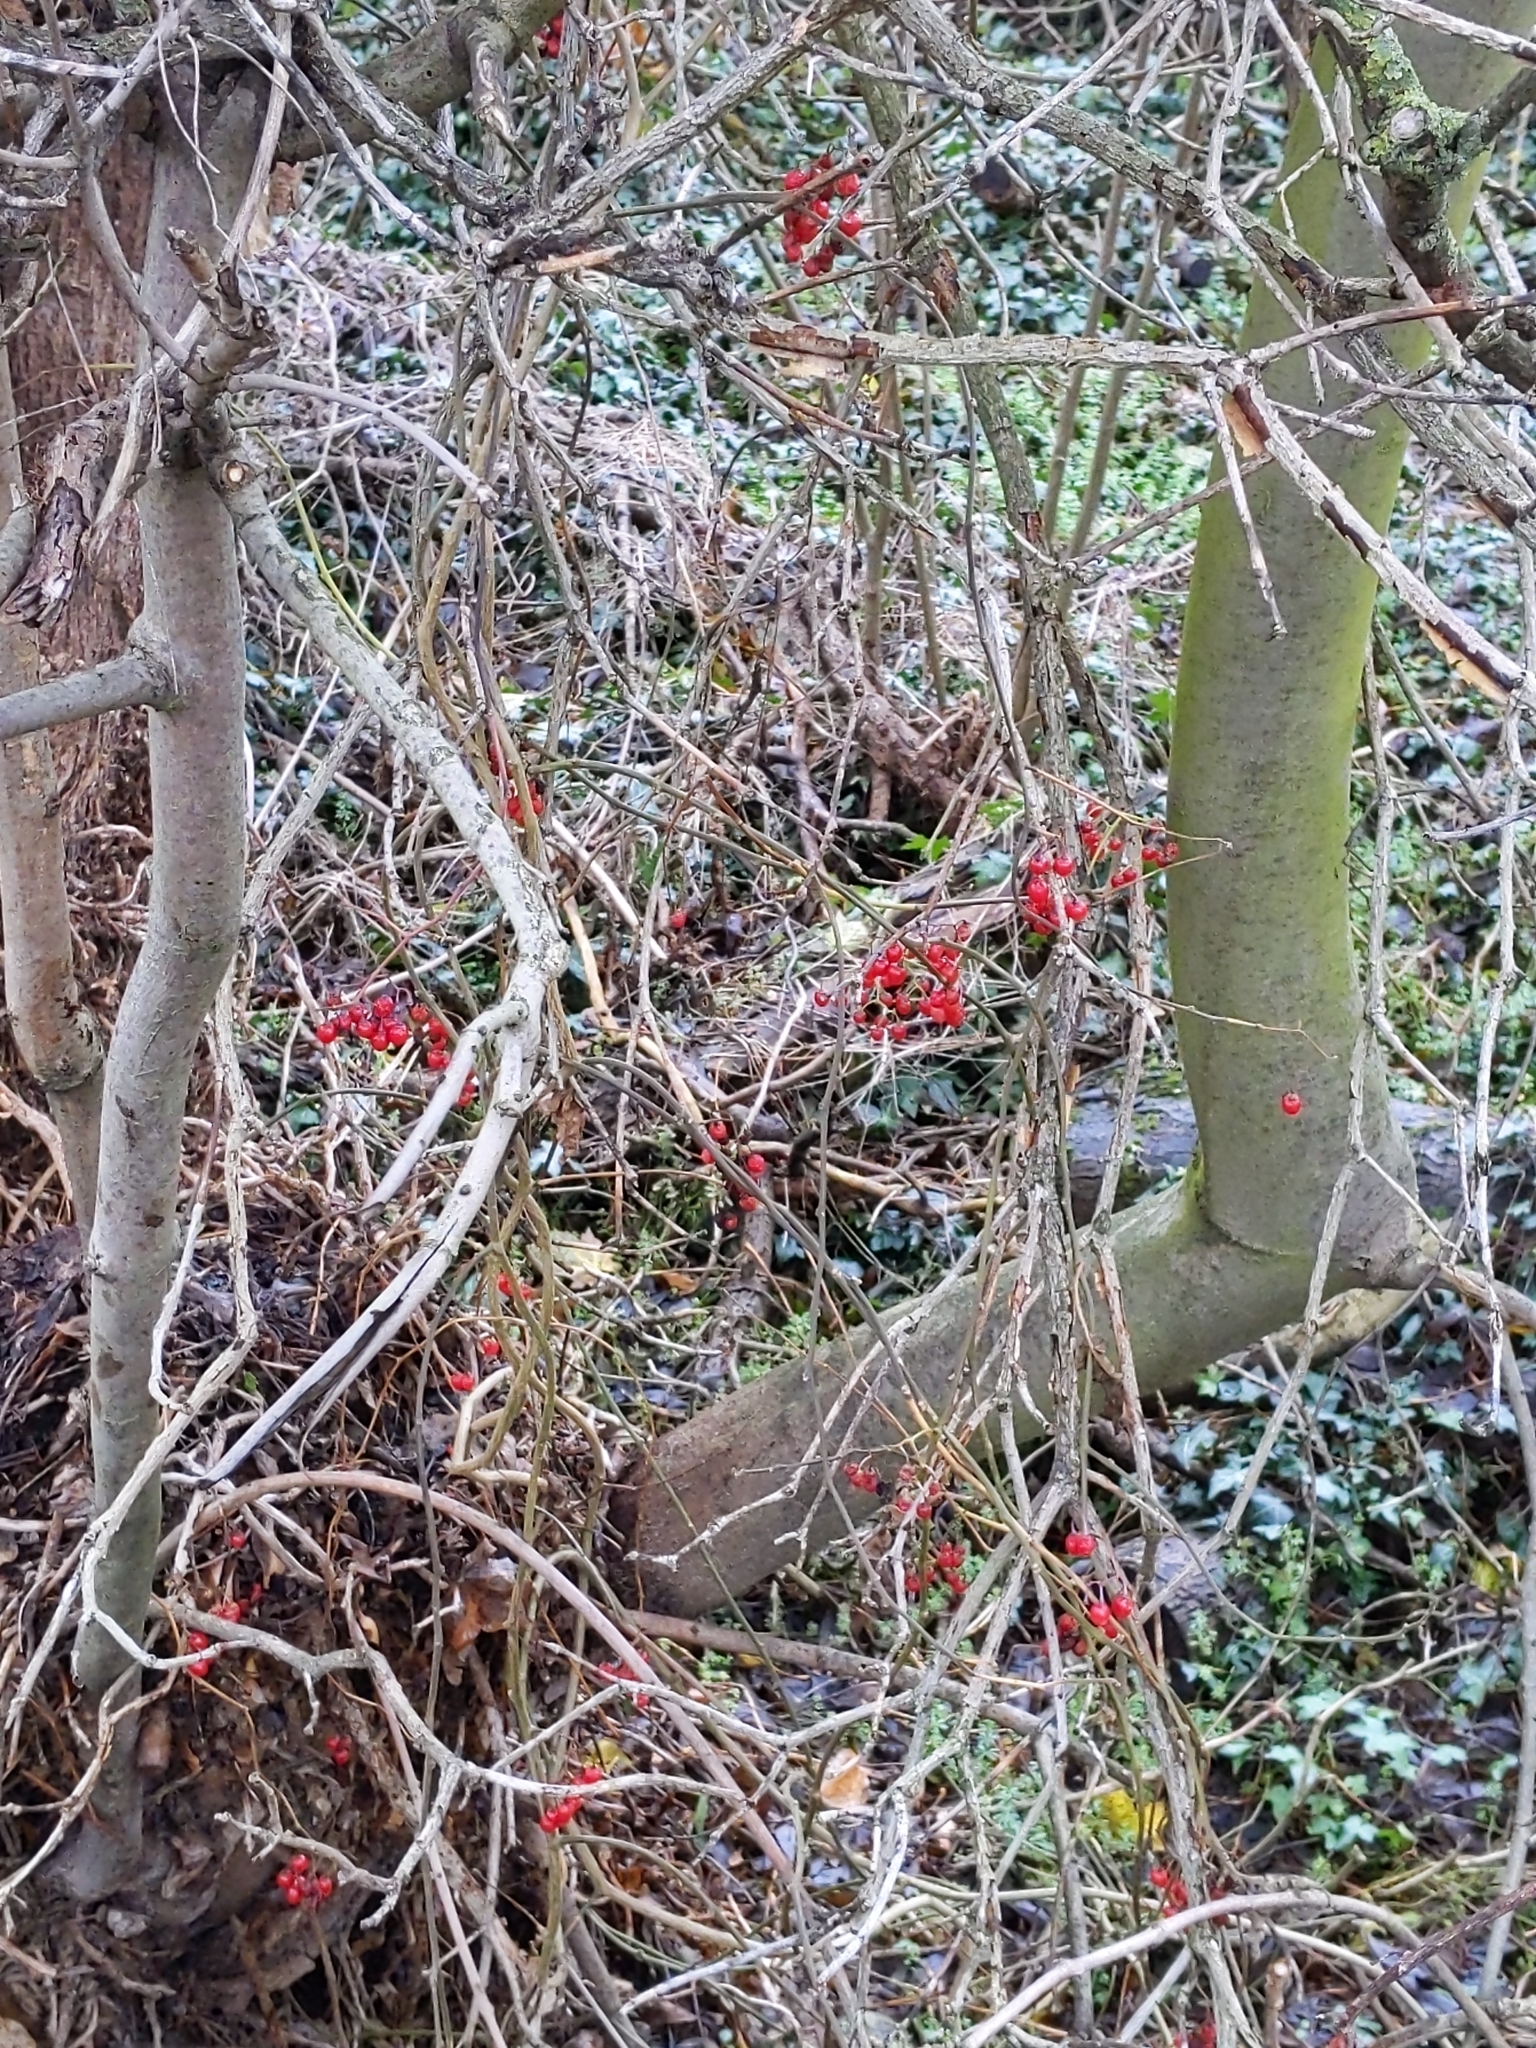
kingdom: Plantae
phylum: Tracheophyta
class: Magnoliopsida
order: Solanales
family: Solanaceae
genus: Solanum
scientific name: Solanum dulcamara
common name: Climbing nightshade
